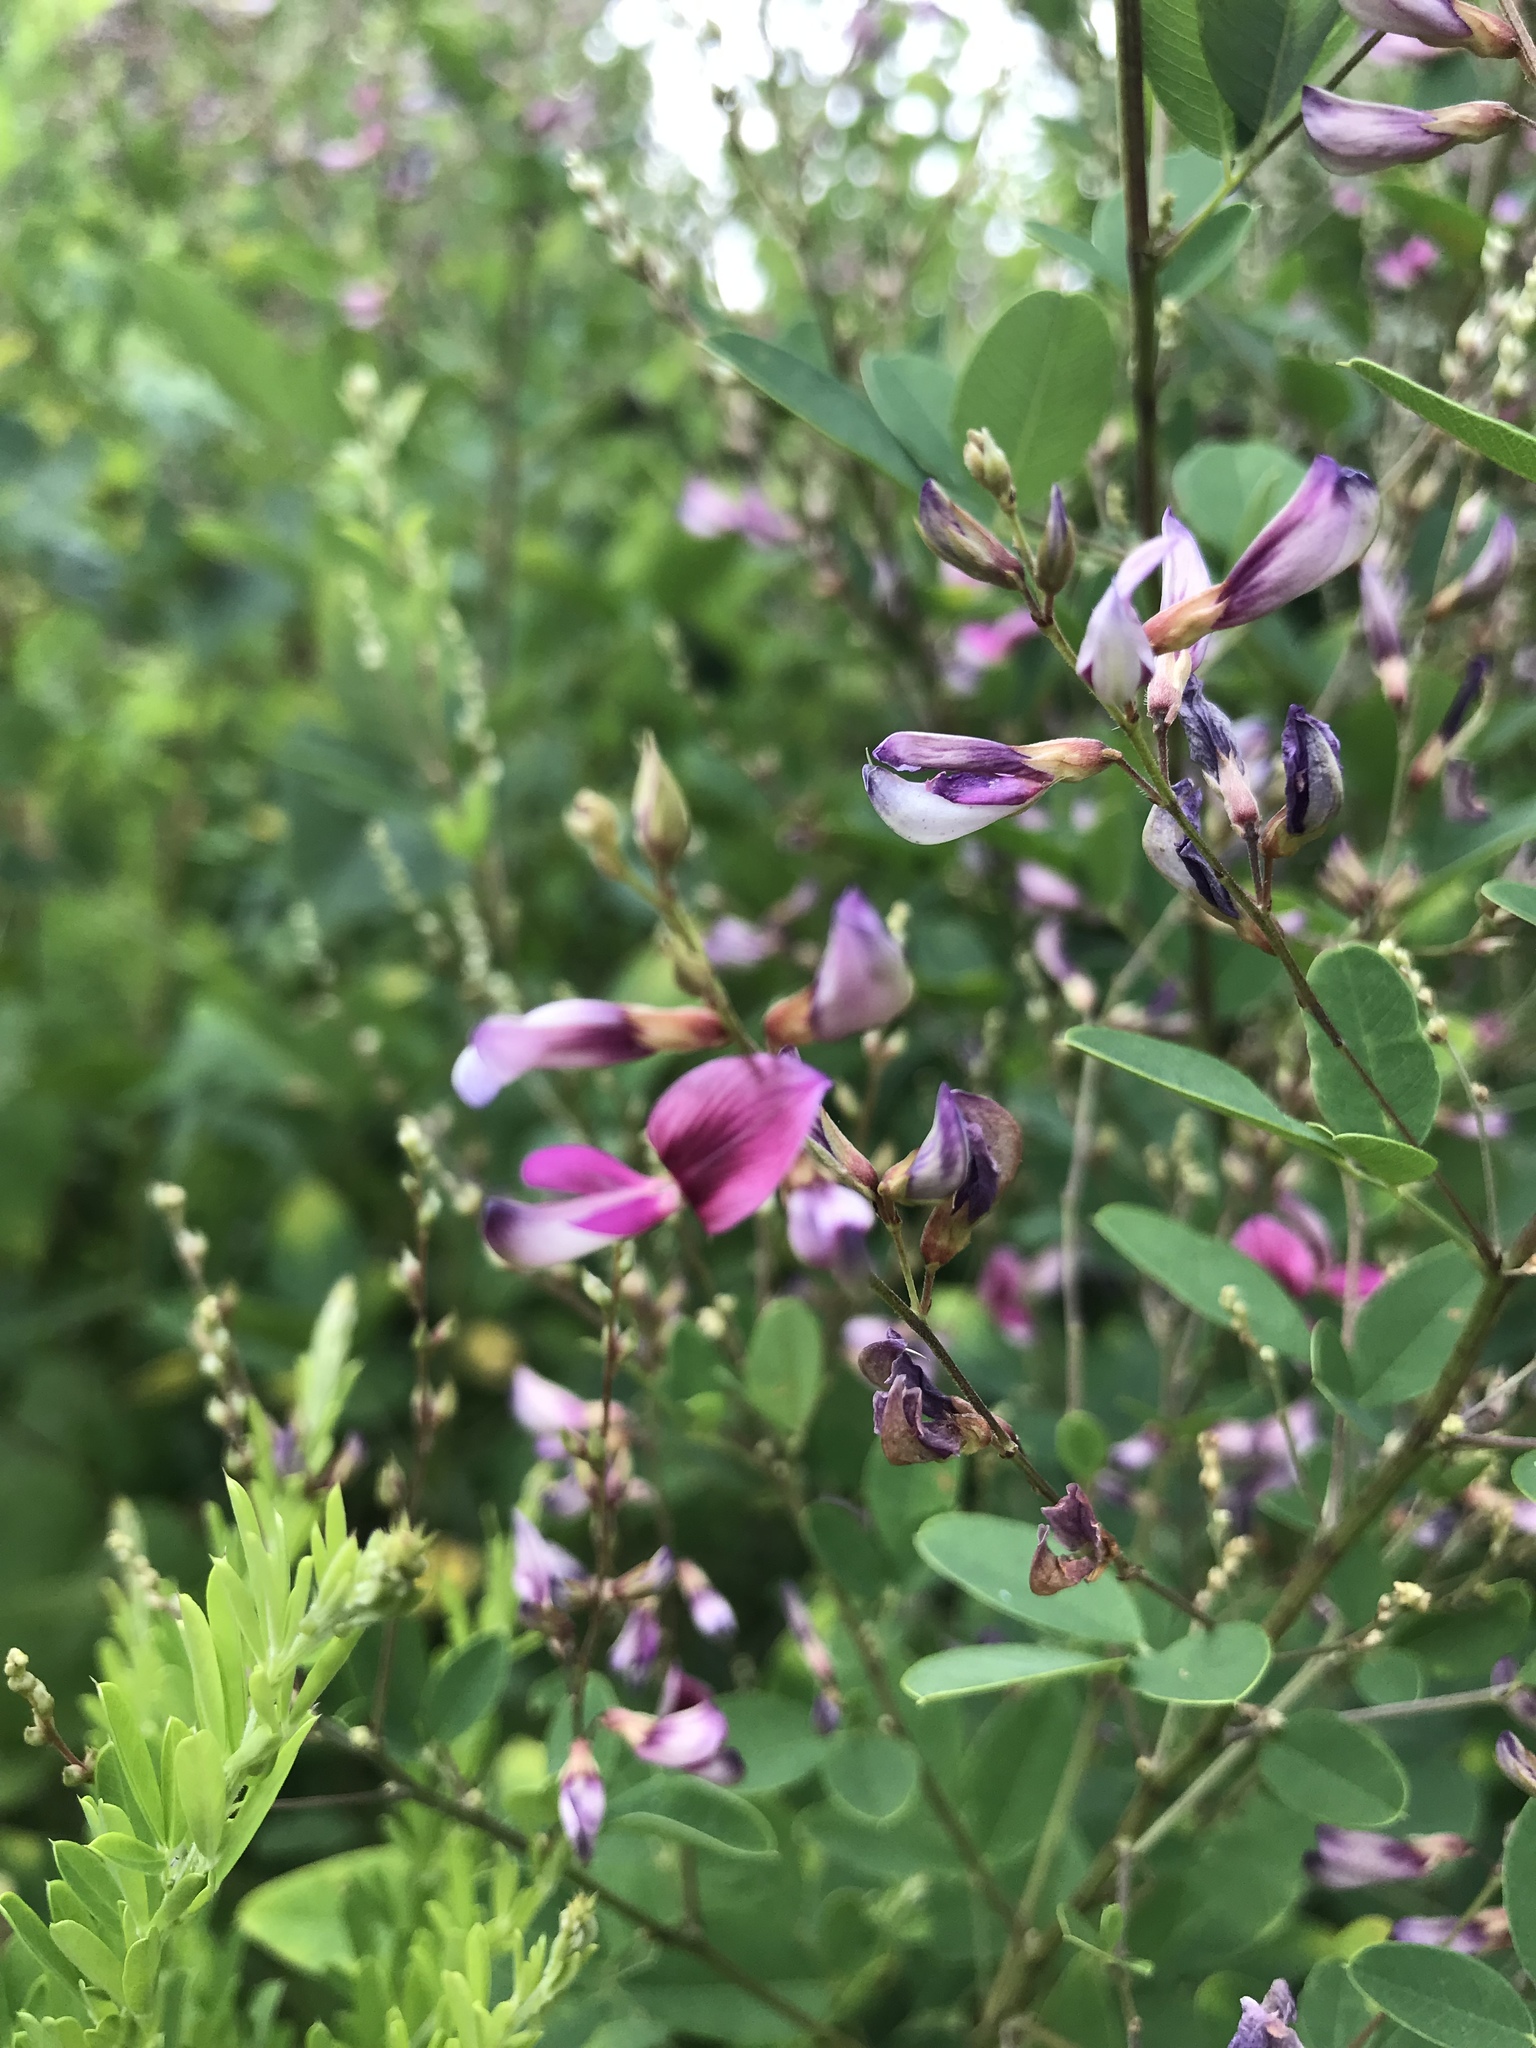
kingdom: Plantae
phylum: Tracheophyta
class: Magnoliopsida
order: Fabales
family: Fabaceae
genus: Lespedeza
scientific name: Lespedeza bicolor
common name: Shrub lespedeza
